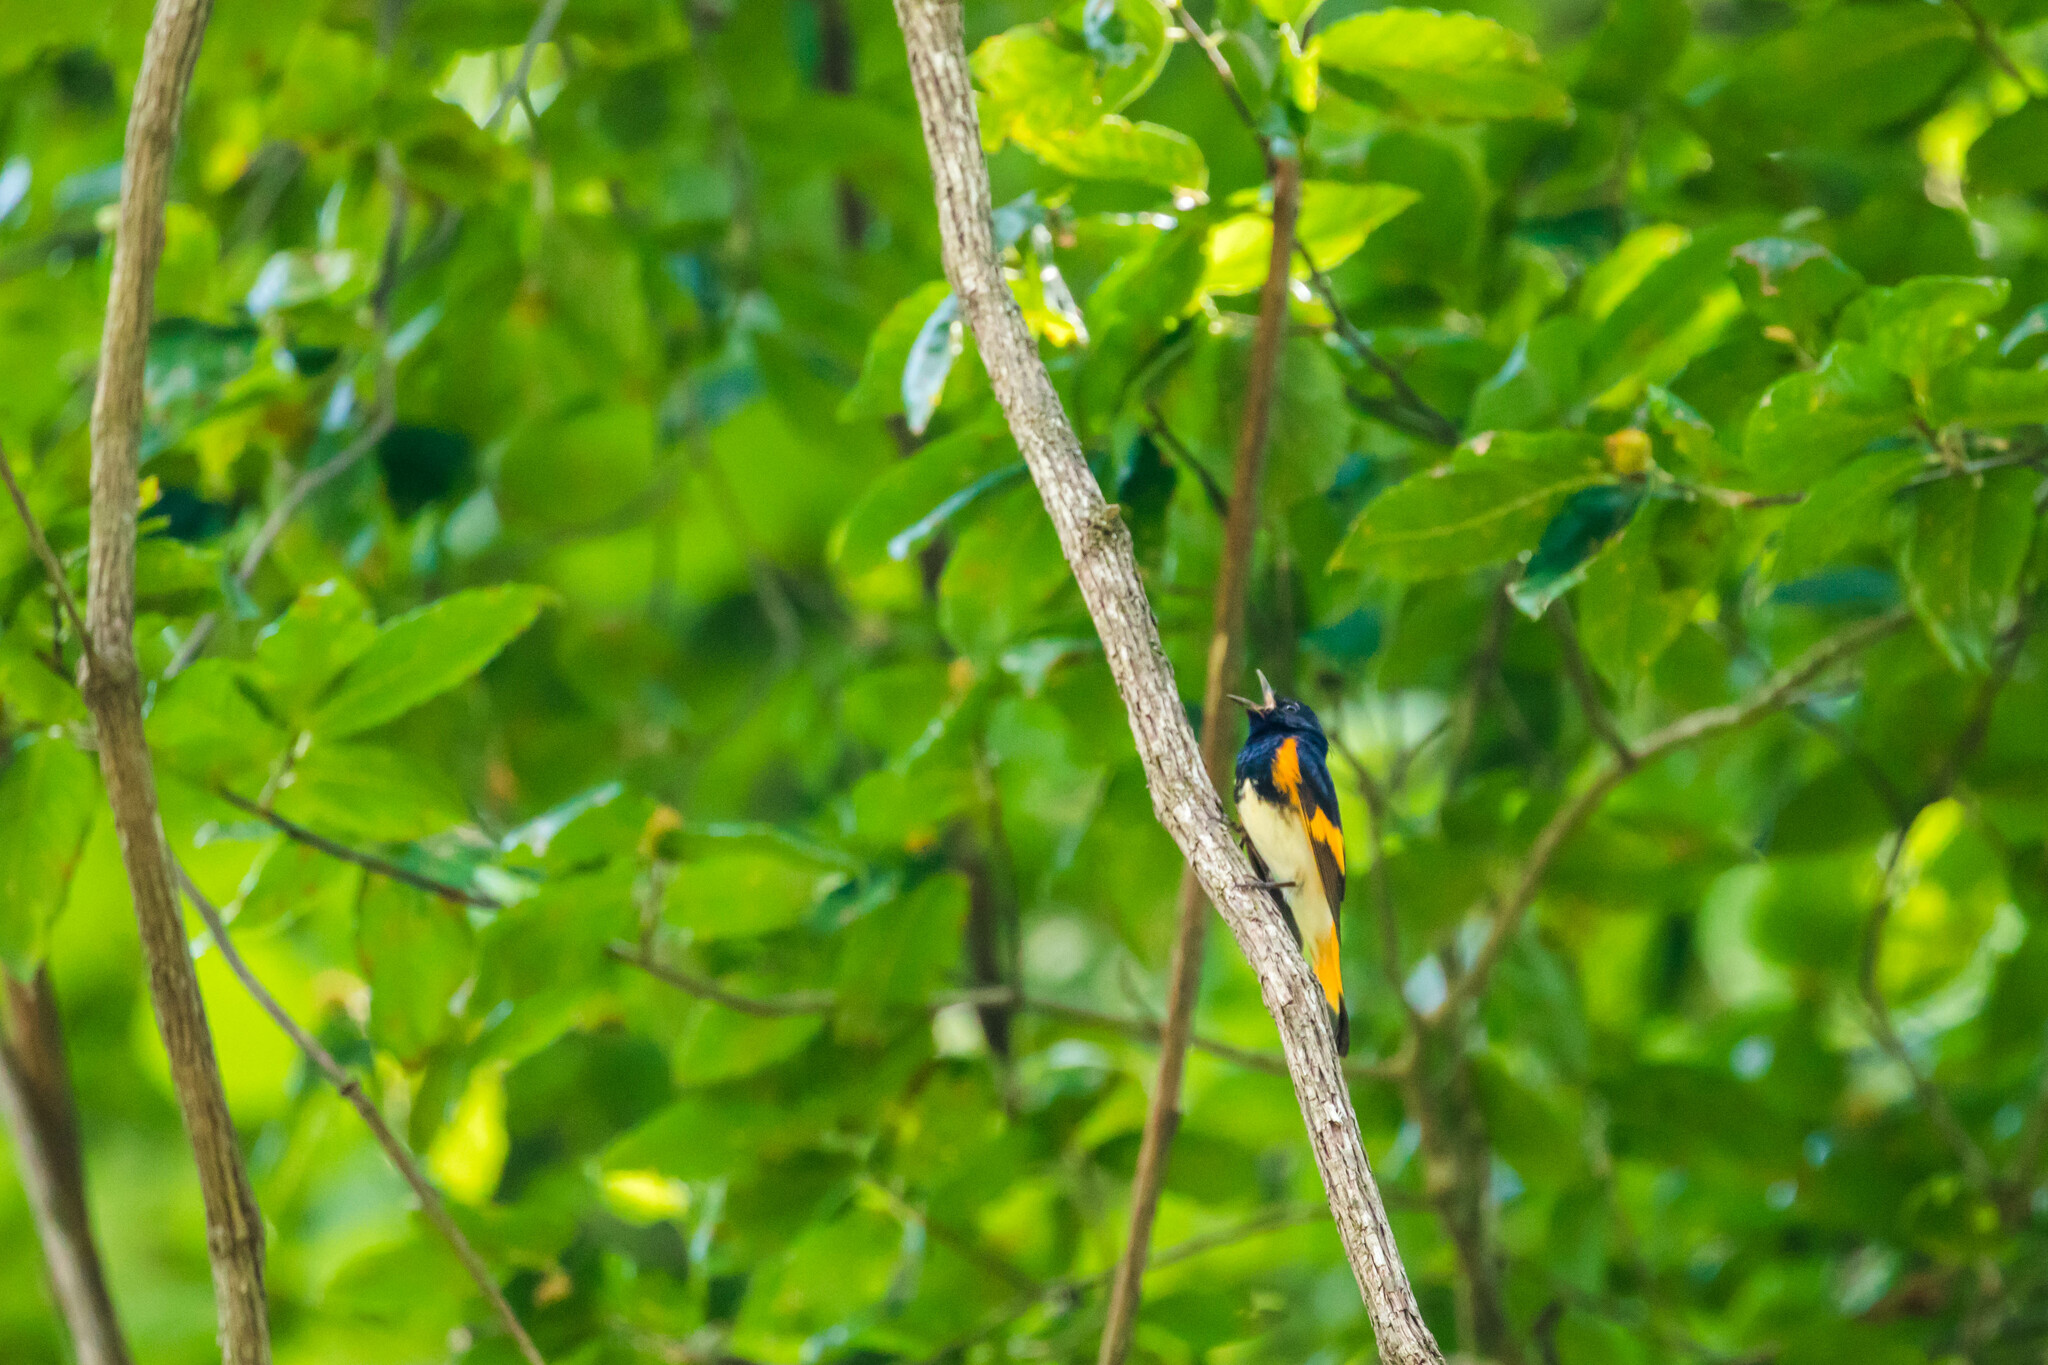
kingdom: Animalia
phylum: Chordata
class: Aves
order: Passeriformes
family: Parulidae
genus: Setophaga
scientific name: Setophaga ruticilla
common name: American redstart
